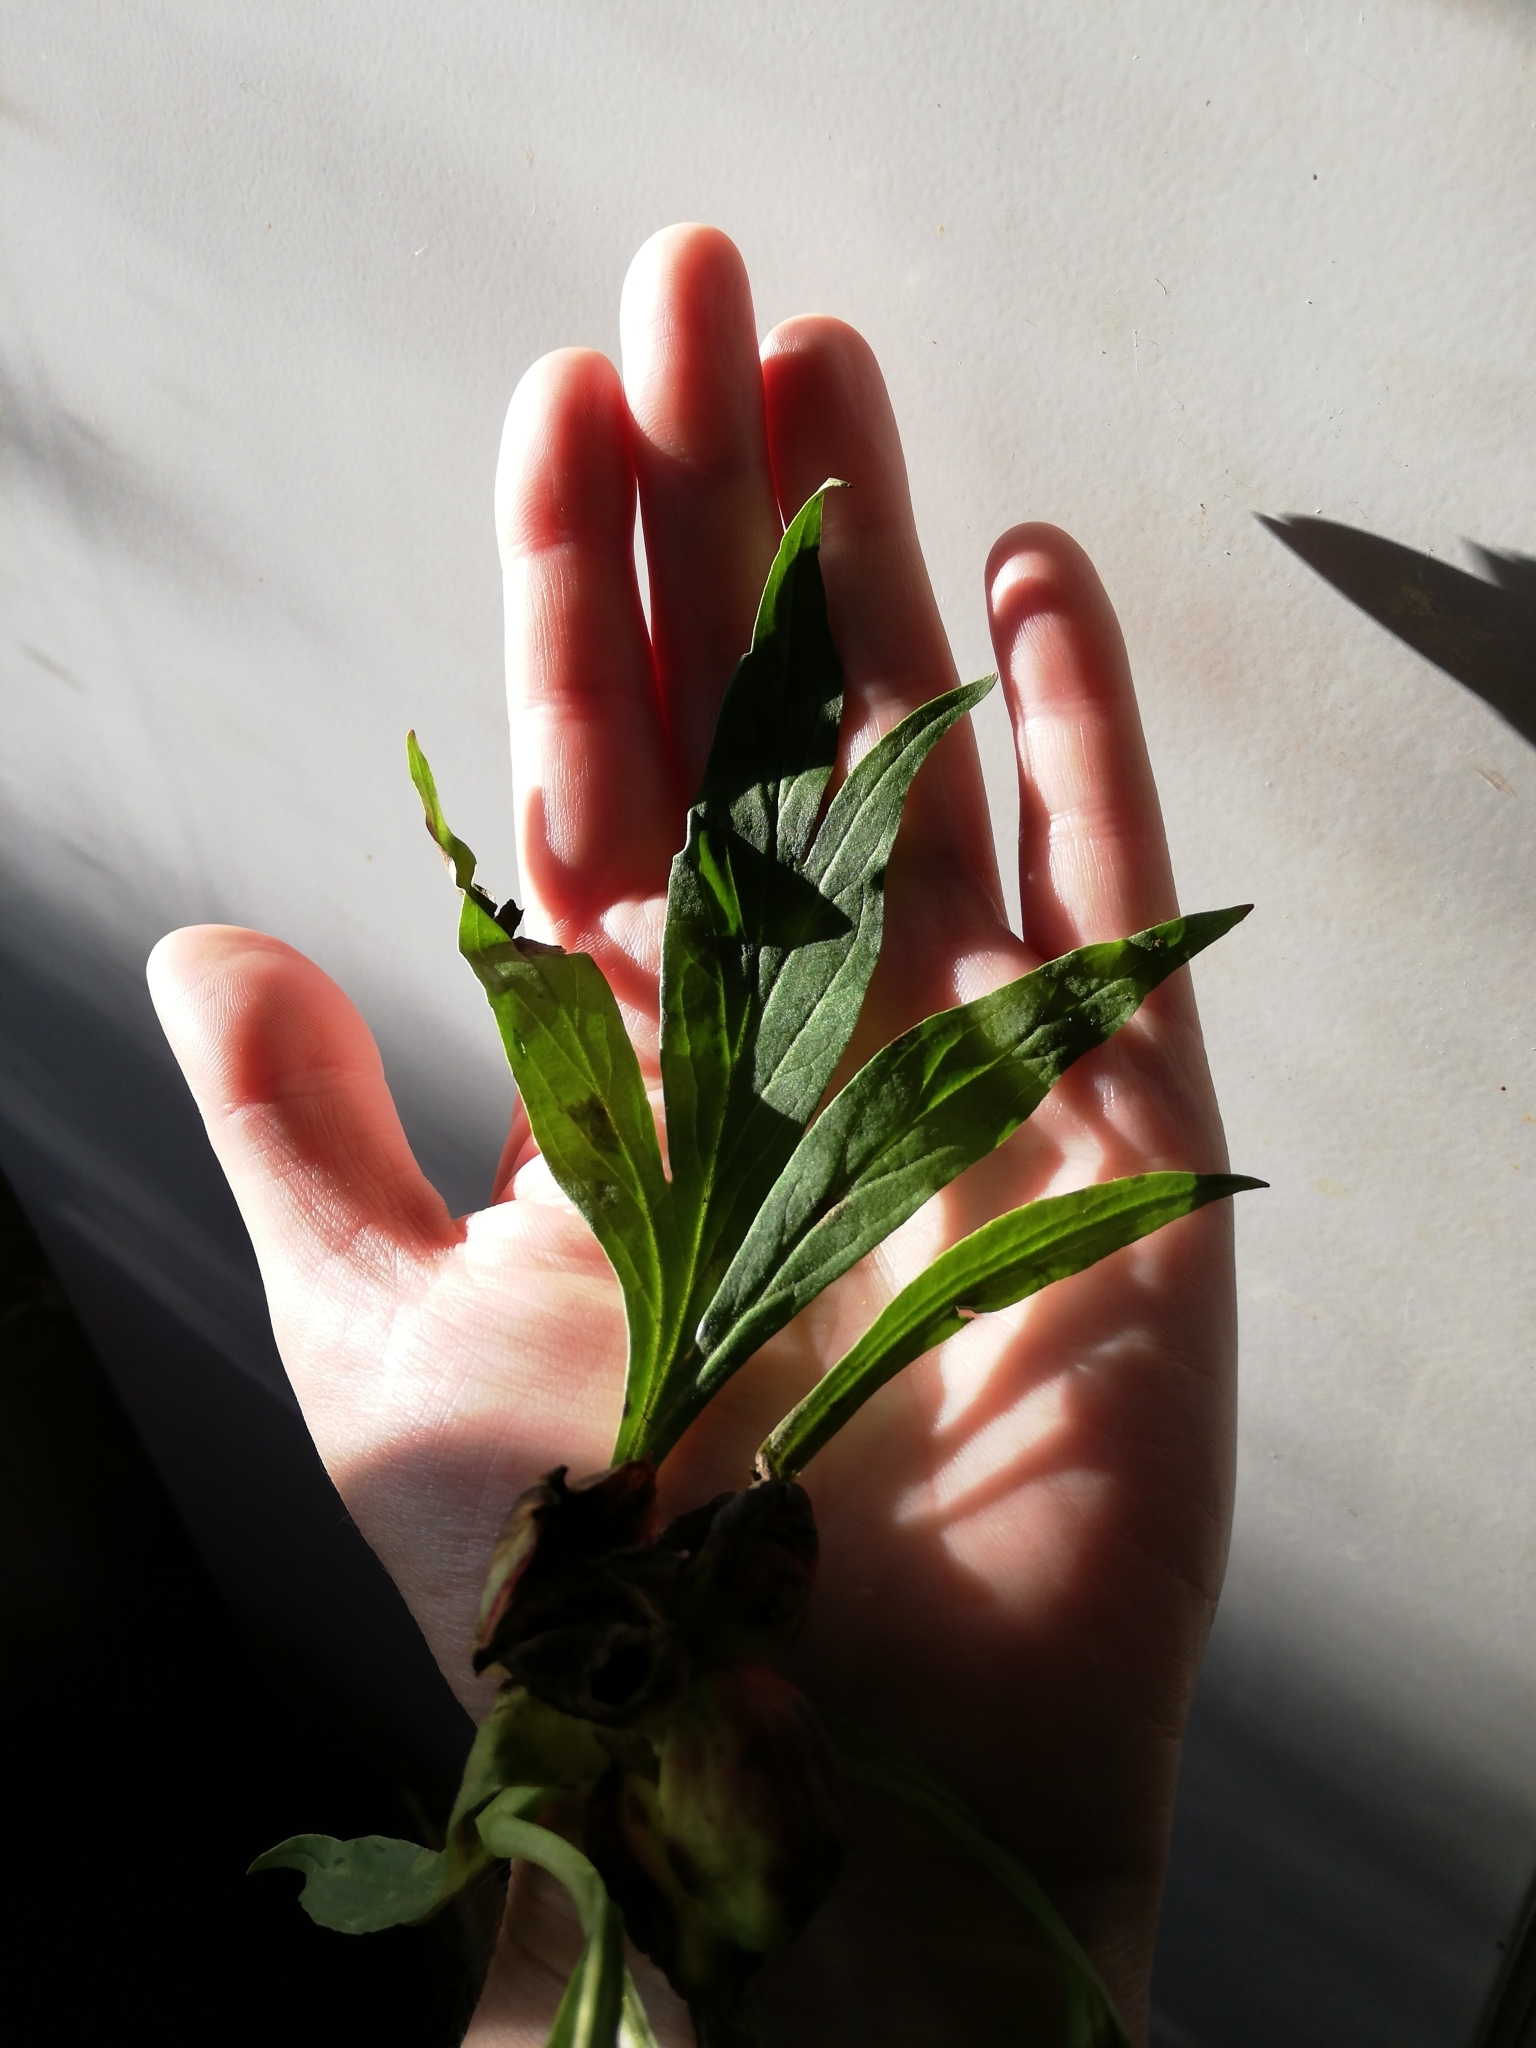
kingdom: Plantae
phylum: Tracheophyta
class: Magnoliopsida
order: Saxifragales
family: Paeoniaceae
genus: Paeonia
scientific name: Paeonia anomala
